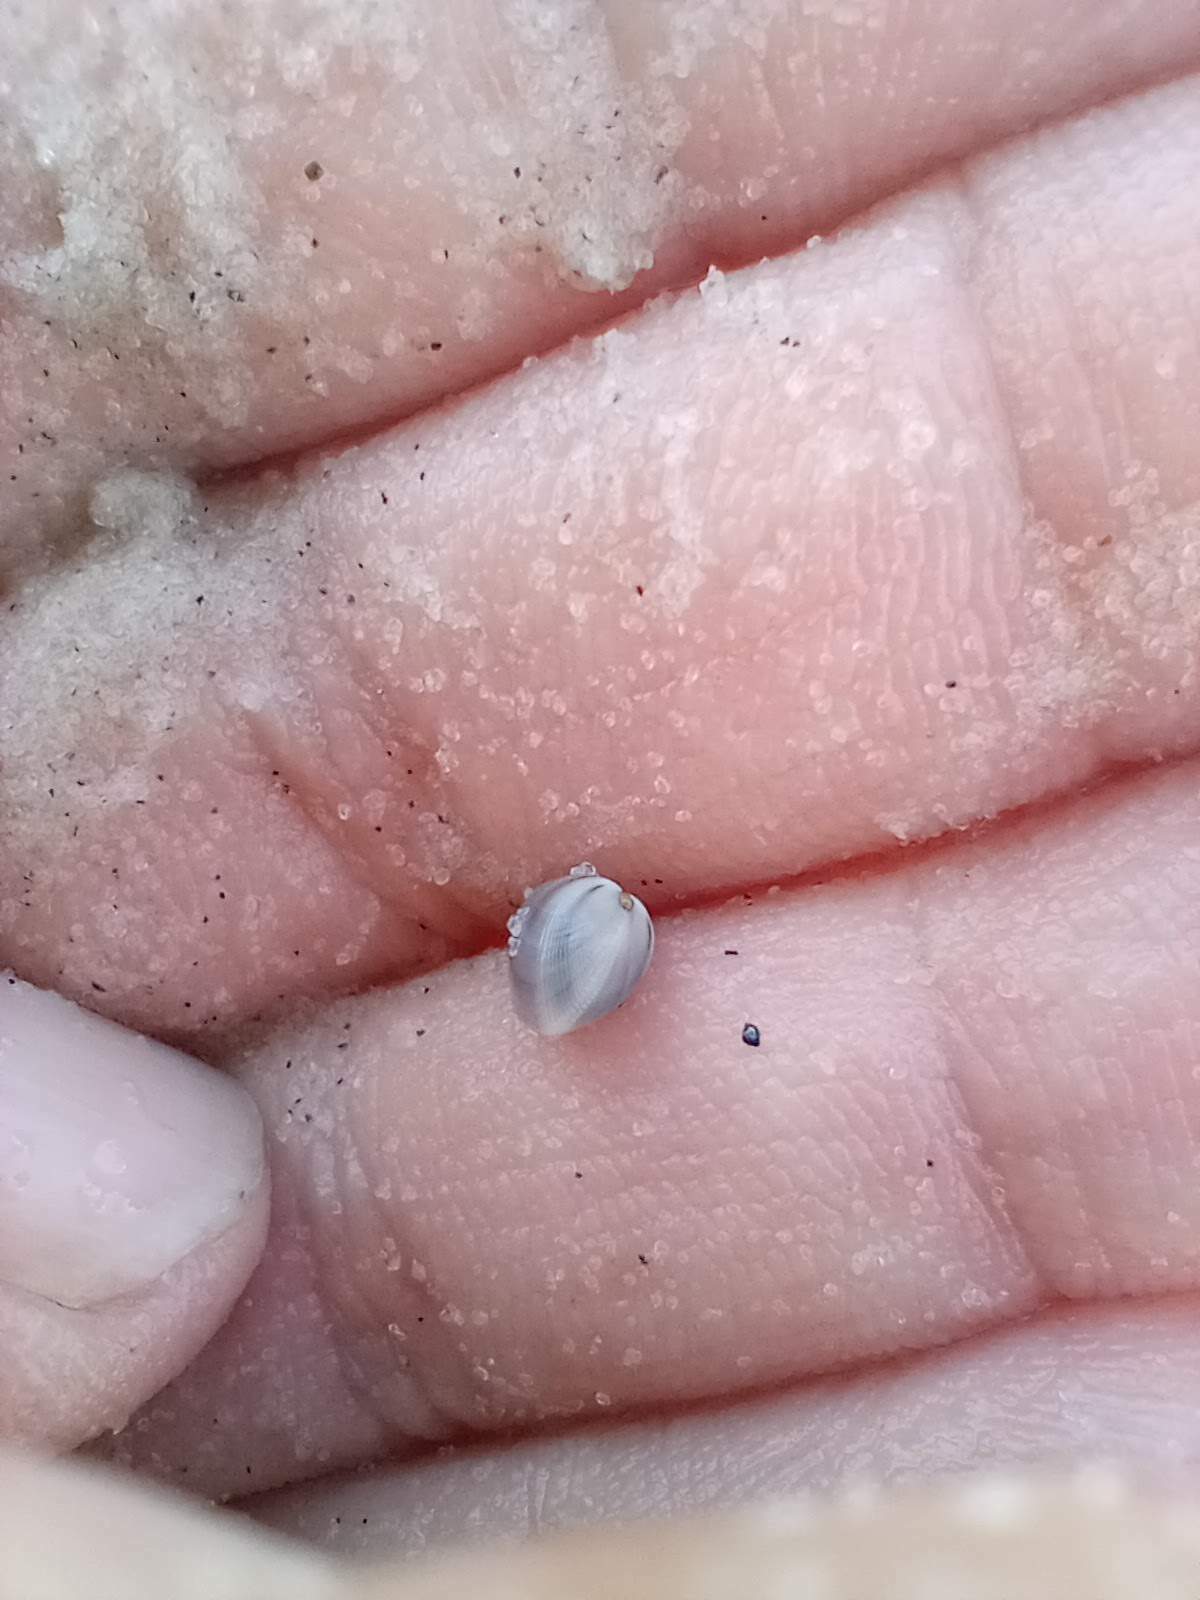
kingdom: Animalia
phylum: Mollusca
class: Bivalvia
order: Cardiida
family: Donacidae
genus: Donax
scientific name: Donax variabilis
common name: Butterfly shell
